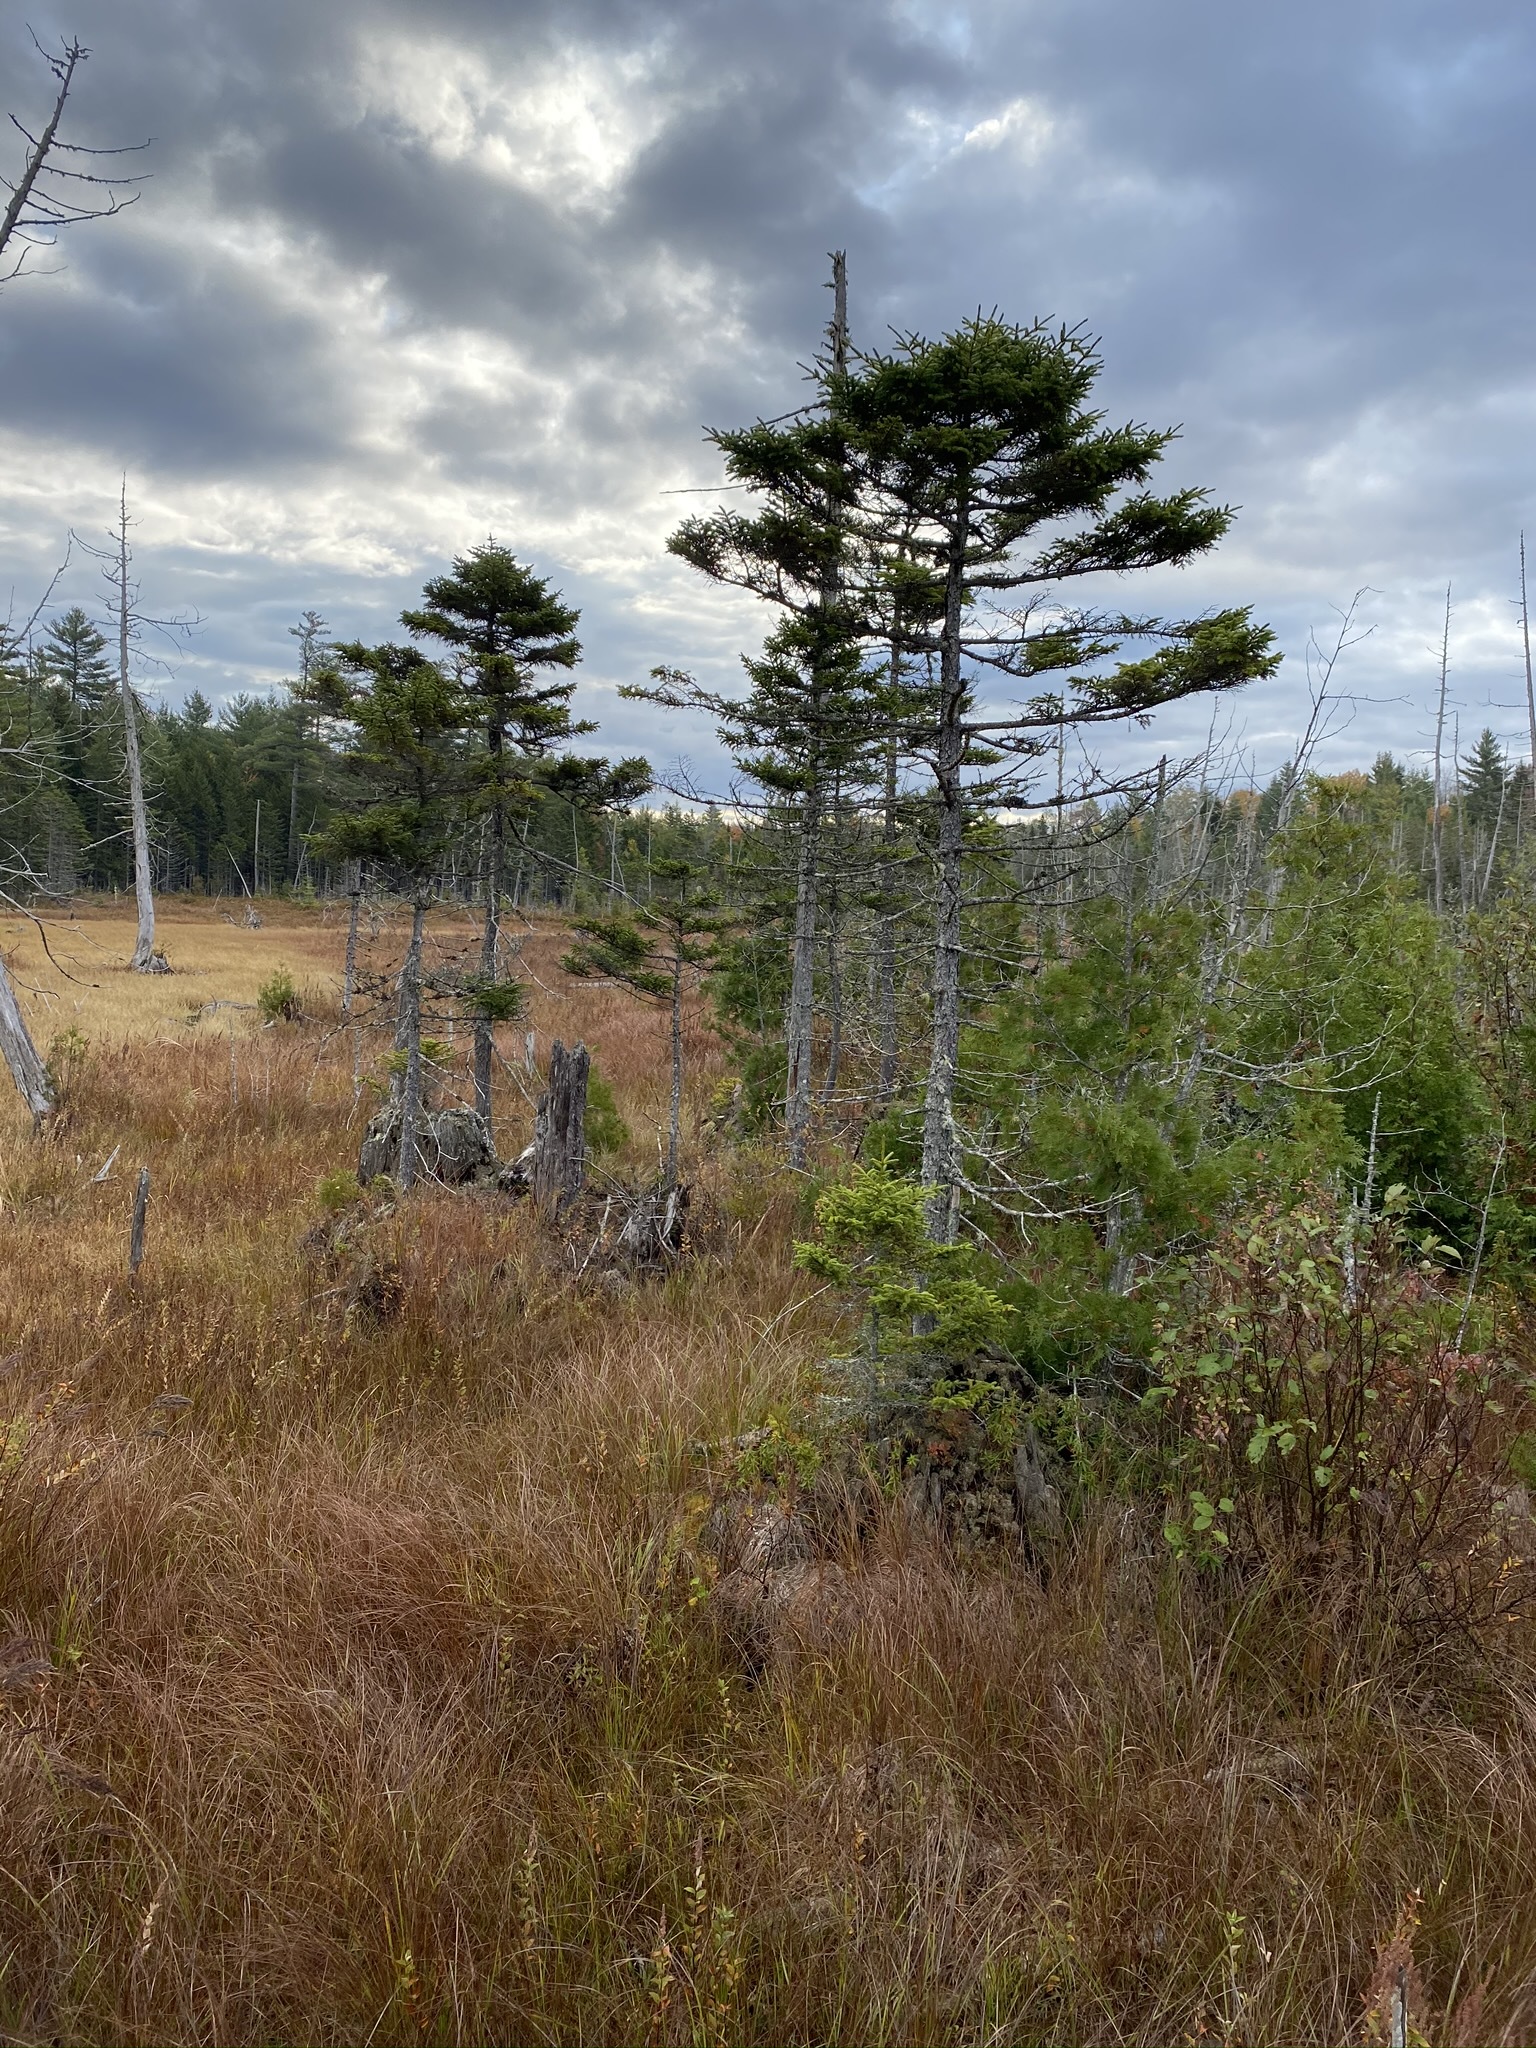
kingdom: Plantae
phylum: Tracheophyta
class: Pinopsida
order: Pinales
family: Pinaceae
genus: Picea
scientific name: Picea mariana
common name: Black spruce
